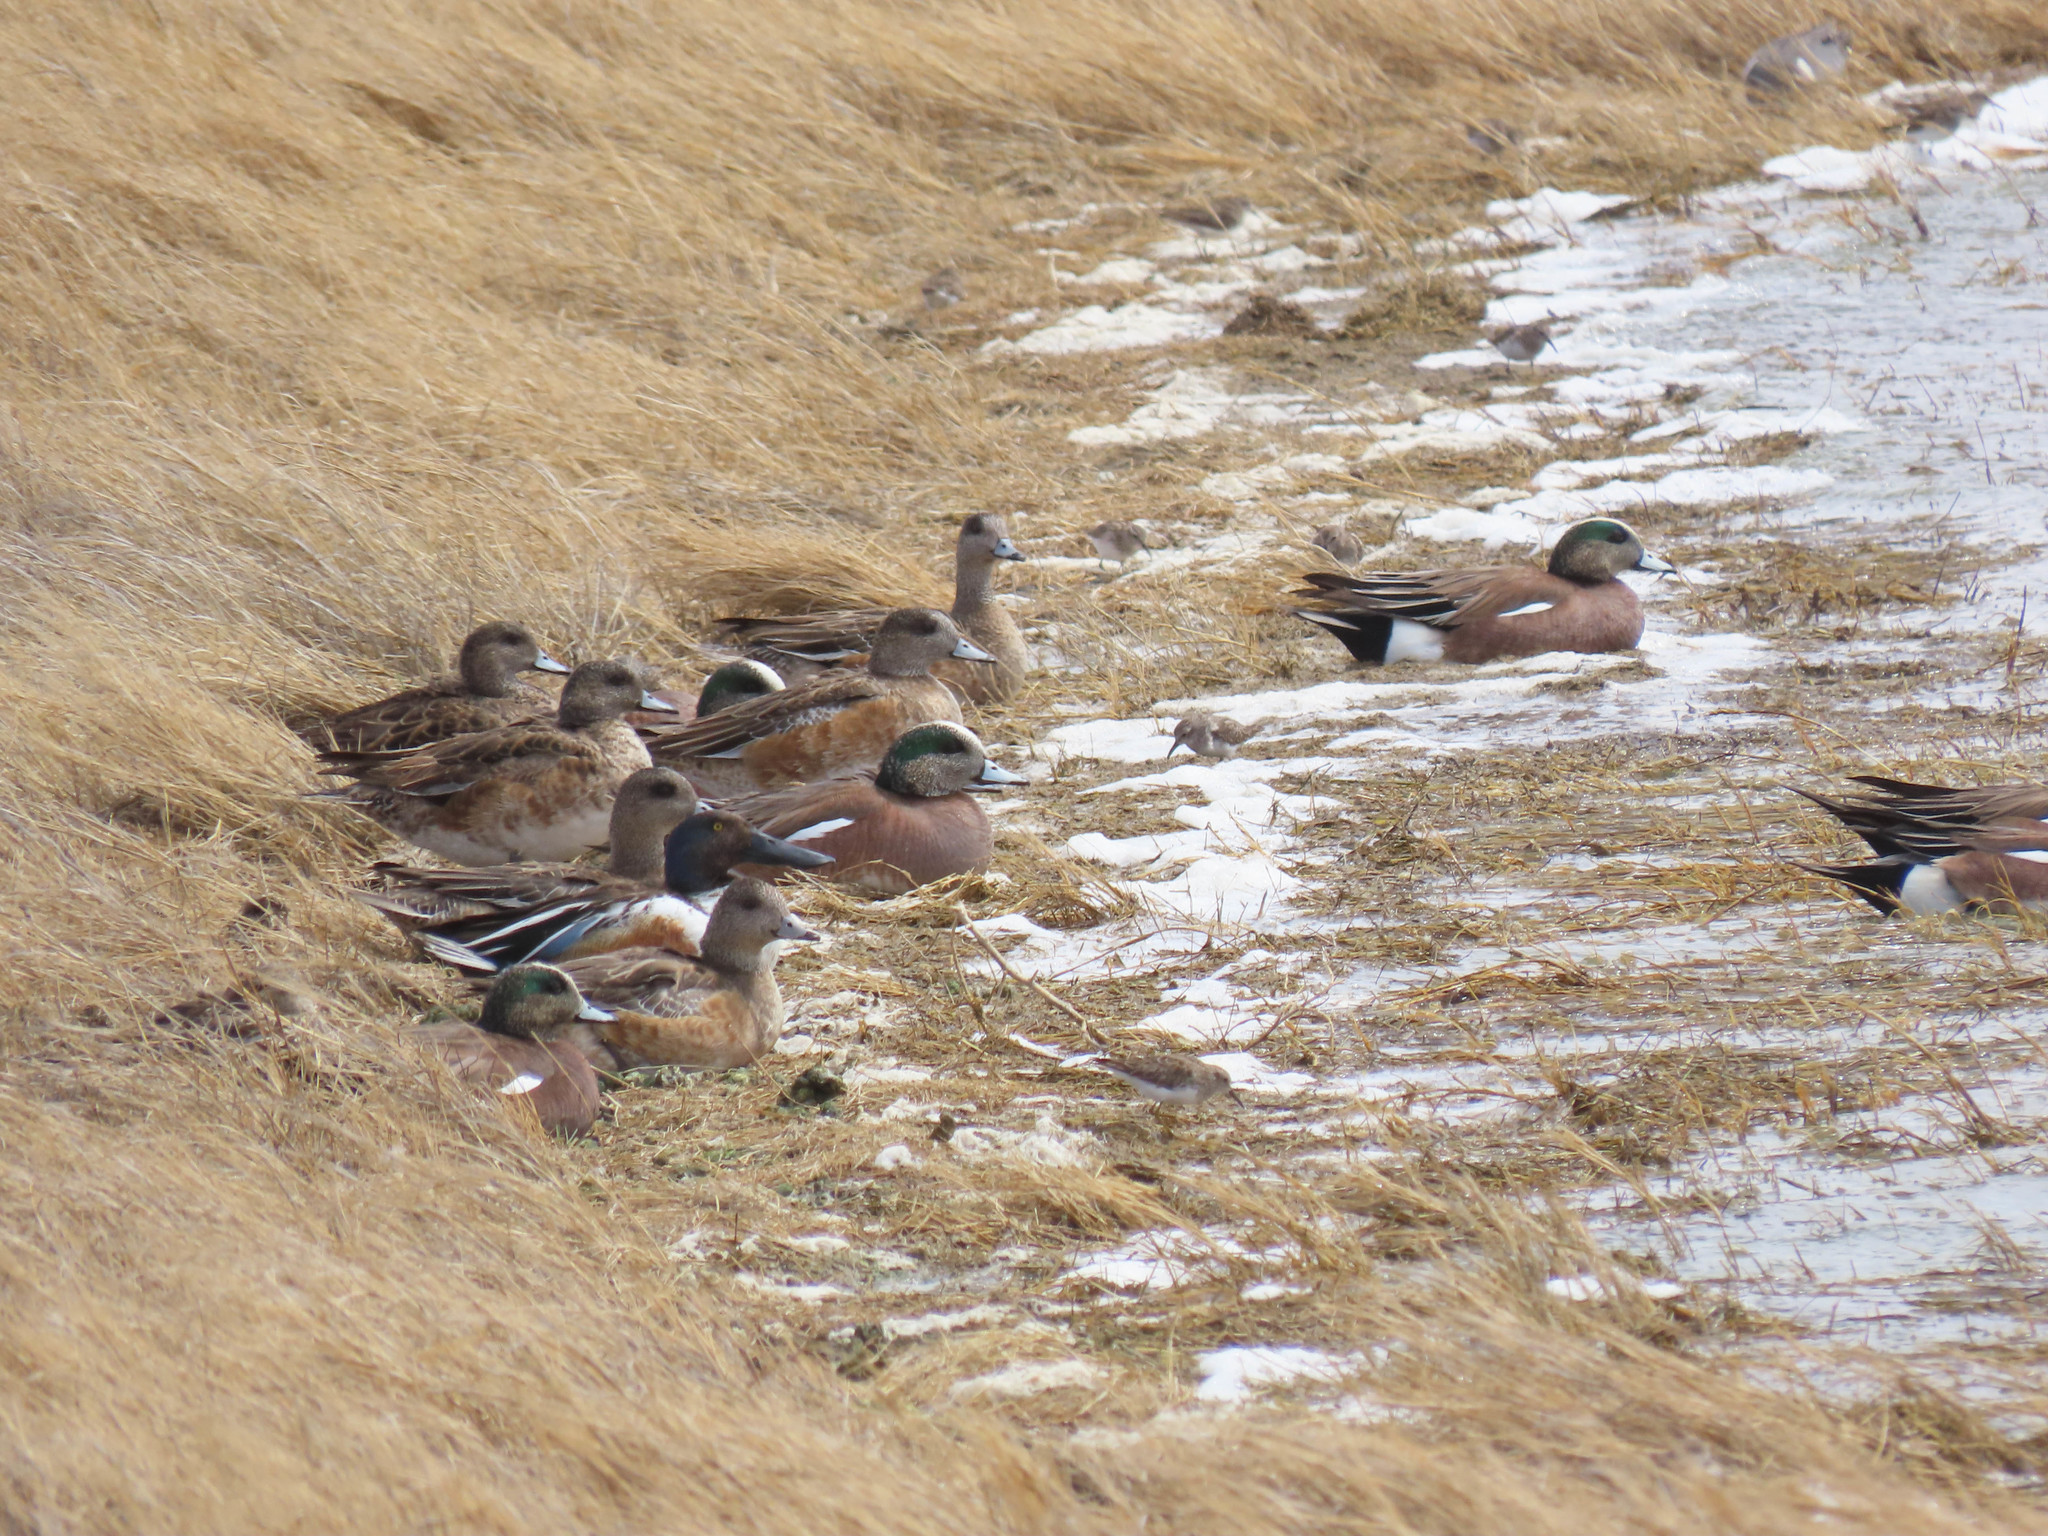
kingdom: Animalia
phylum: Chordata
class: Aves
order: Anseriformes
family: Anatidae
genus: Mareca
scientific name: Mareca americana
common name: American wigeon
